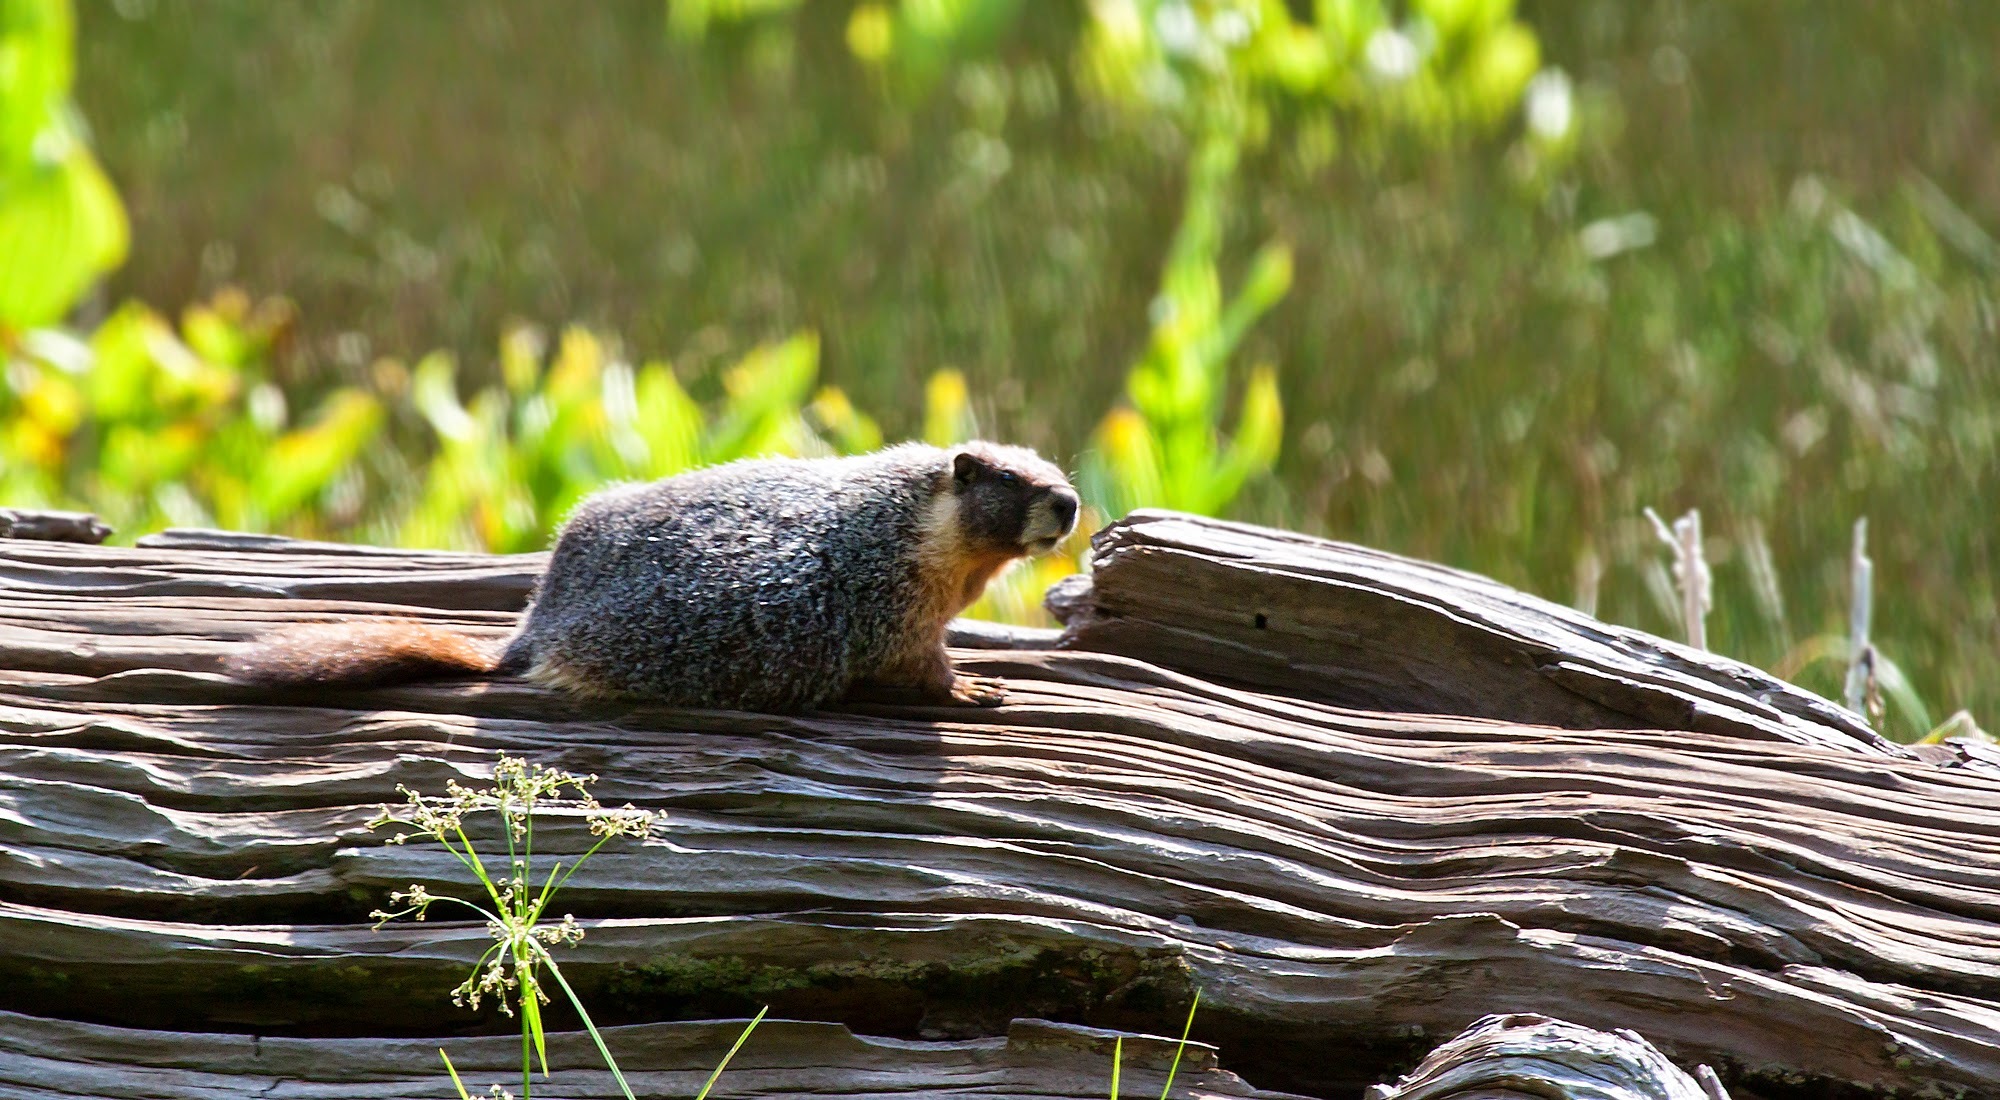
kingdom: Animalia
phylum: Chordata
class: Mammalia
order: Rodentia
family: Sciuridae
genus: Marmota
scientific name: Marmota flaviventris
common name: Yellow-bellied marmot
